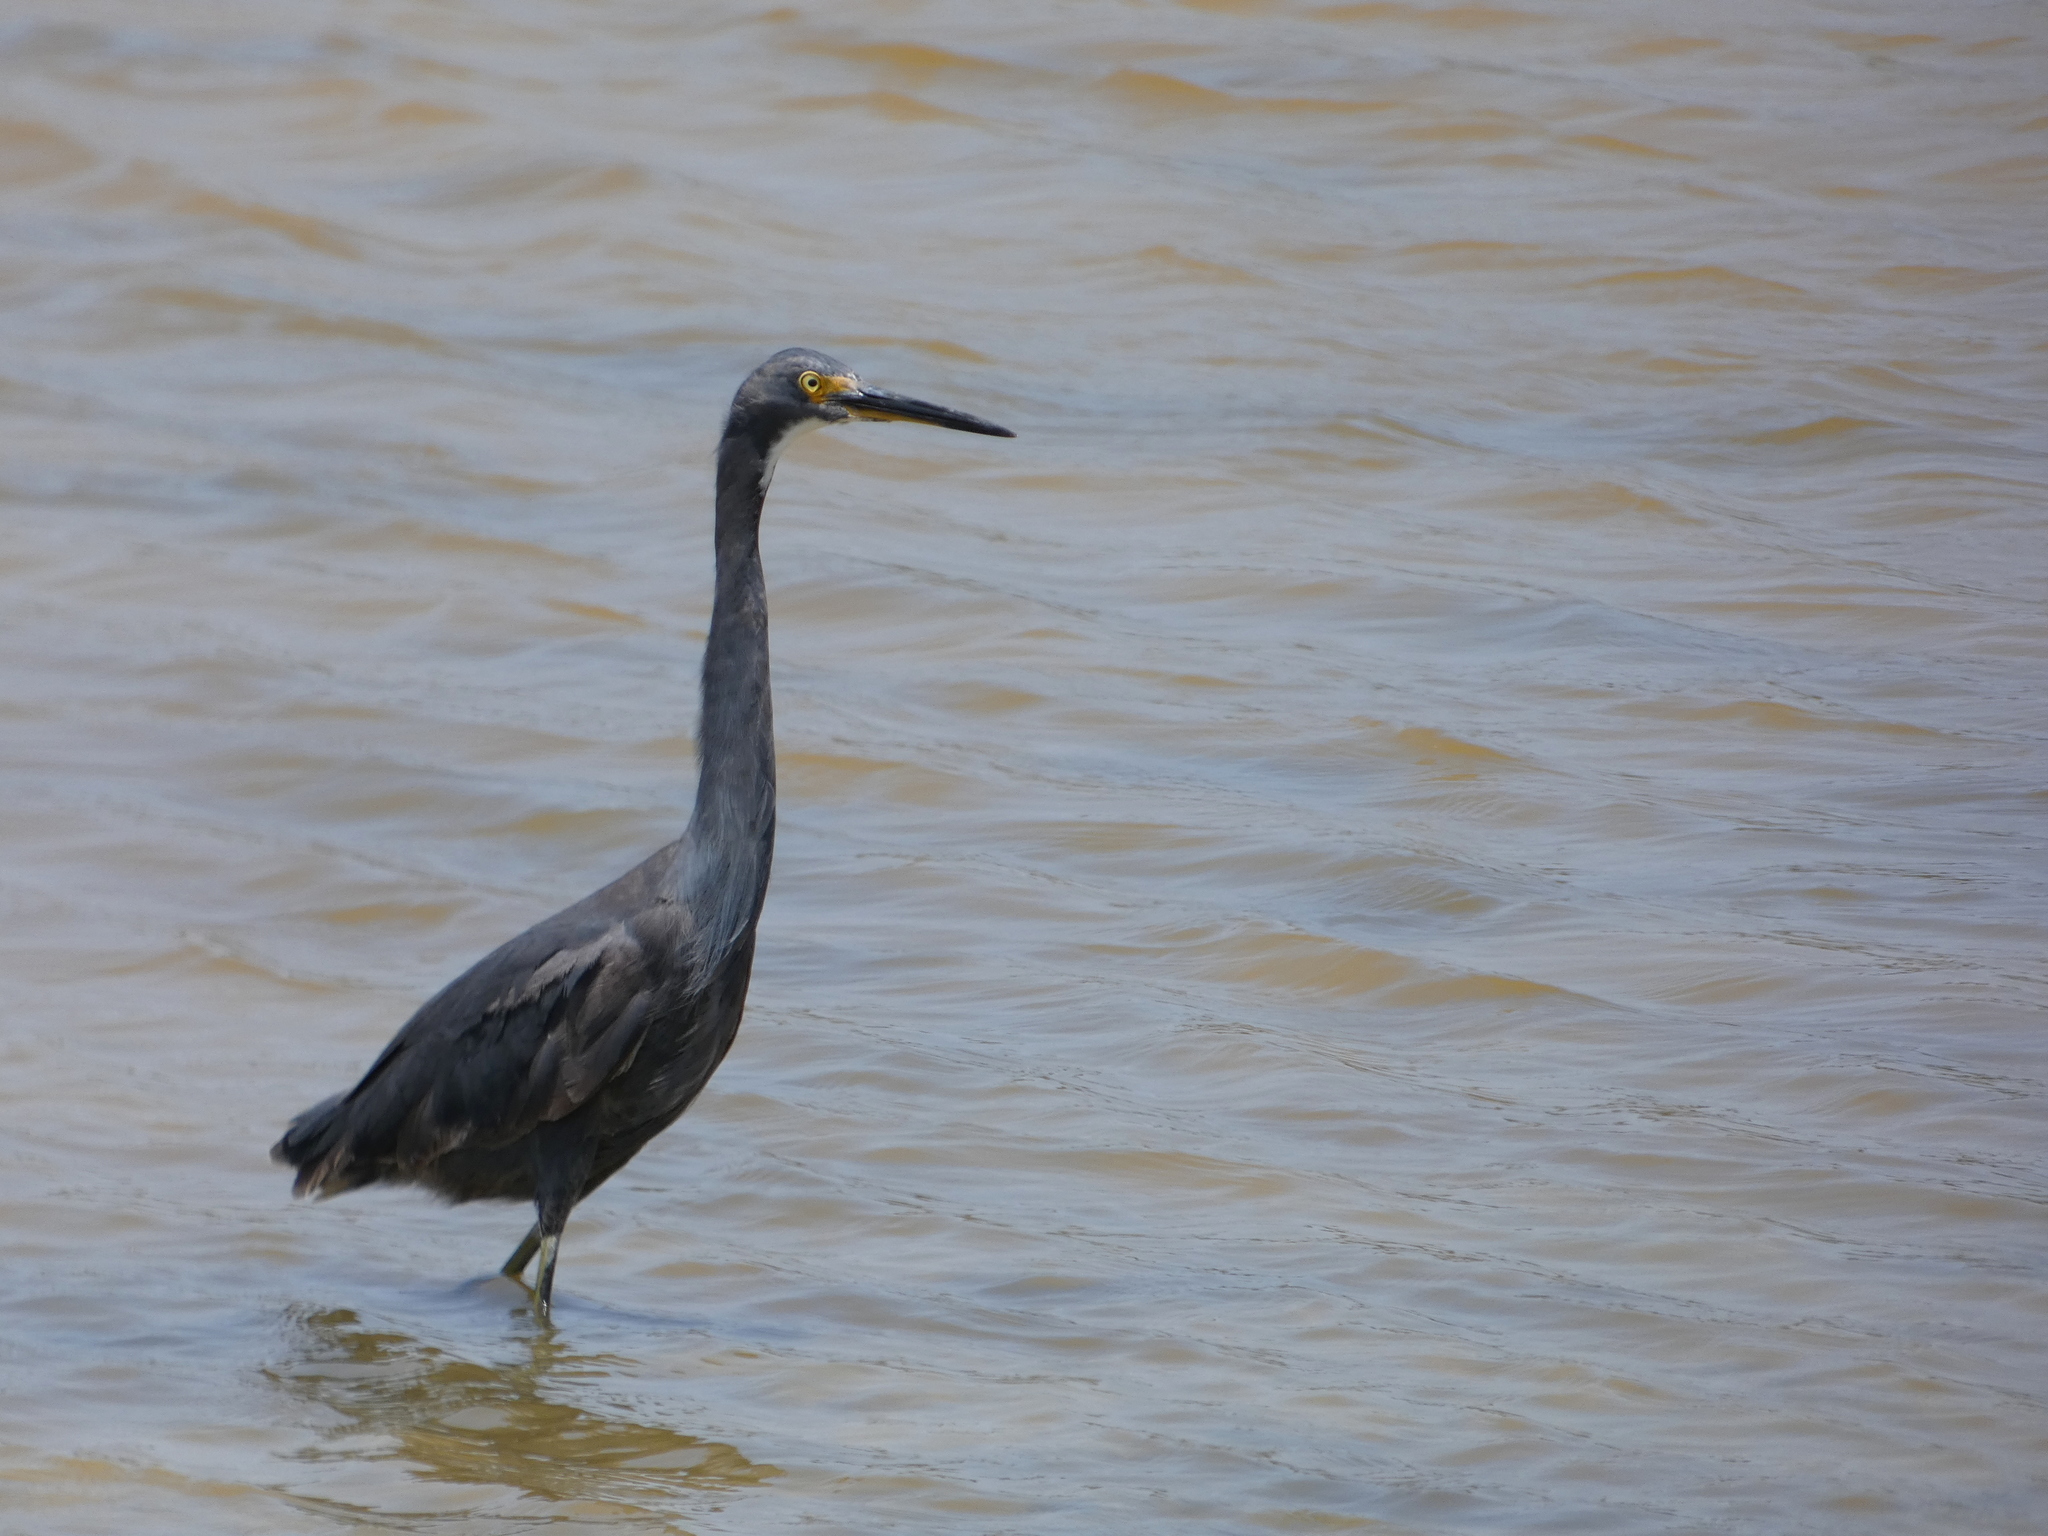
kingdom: Animalia
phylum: Chordata
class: Aves
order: Pelecaniformes
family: Ardeidae
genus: Egretta
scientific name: Egretta dimorpha
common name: Dimorphic egret
